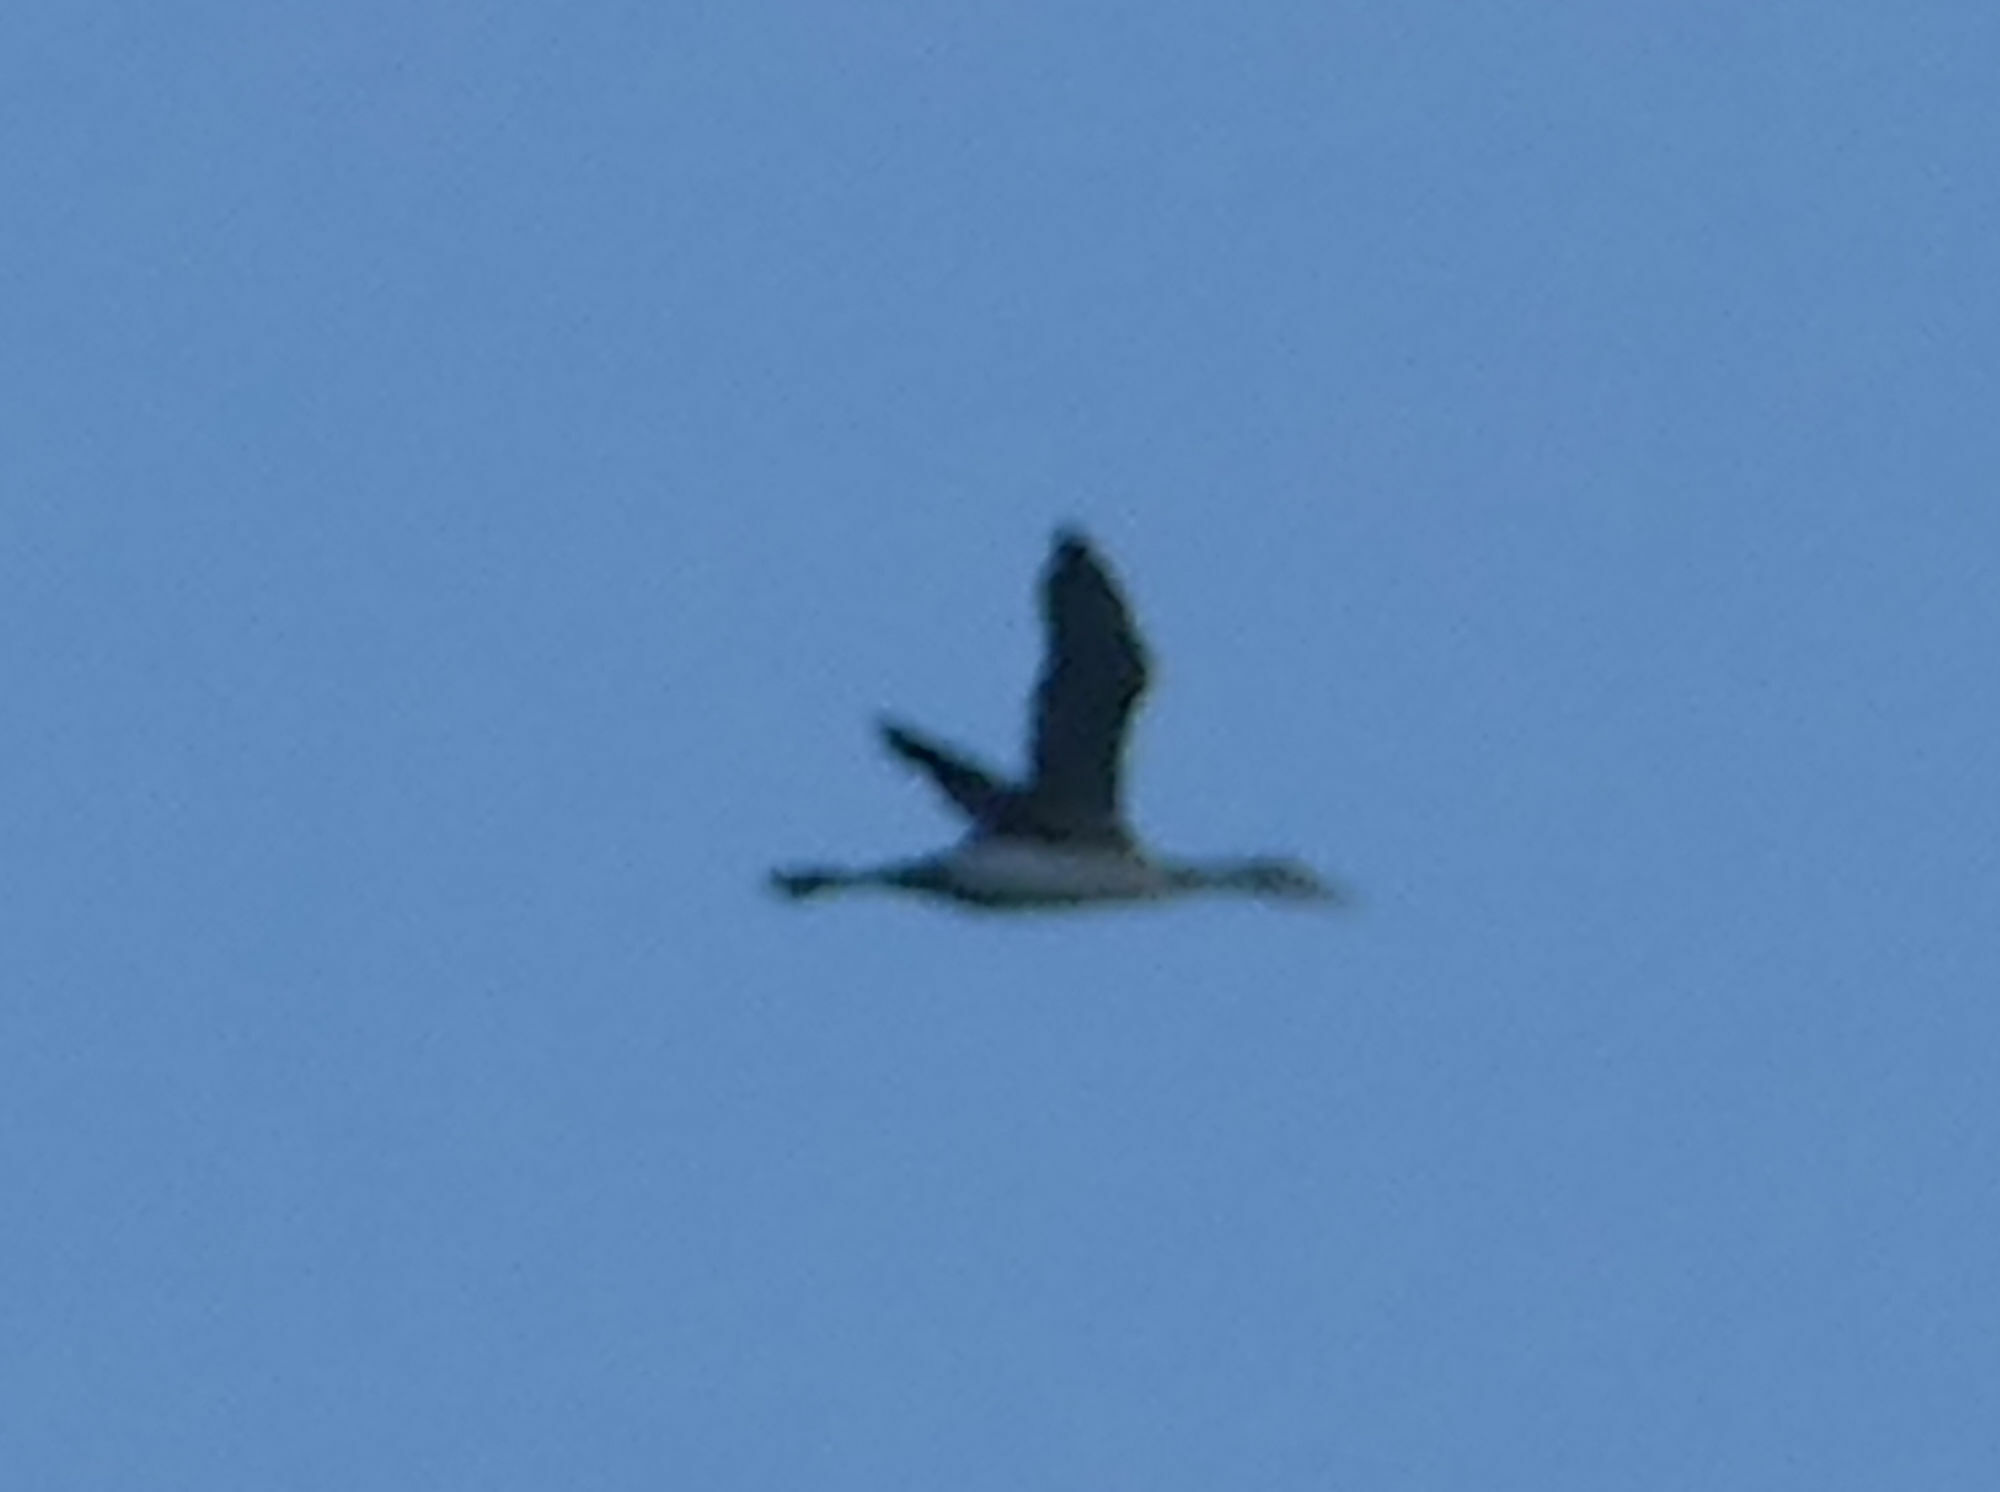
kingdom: Animalia
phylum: Chordata
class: Aves
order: Gaviiformes
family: Gaviidae
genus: Gavia
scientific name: Gavia immer
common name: Common loon
